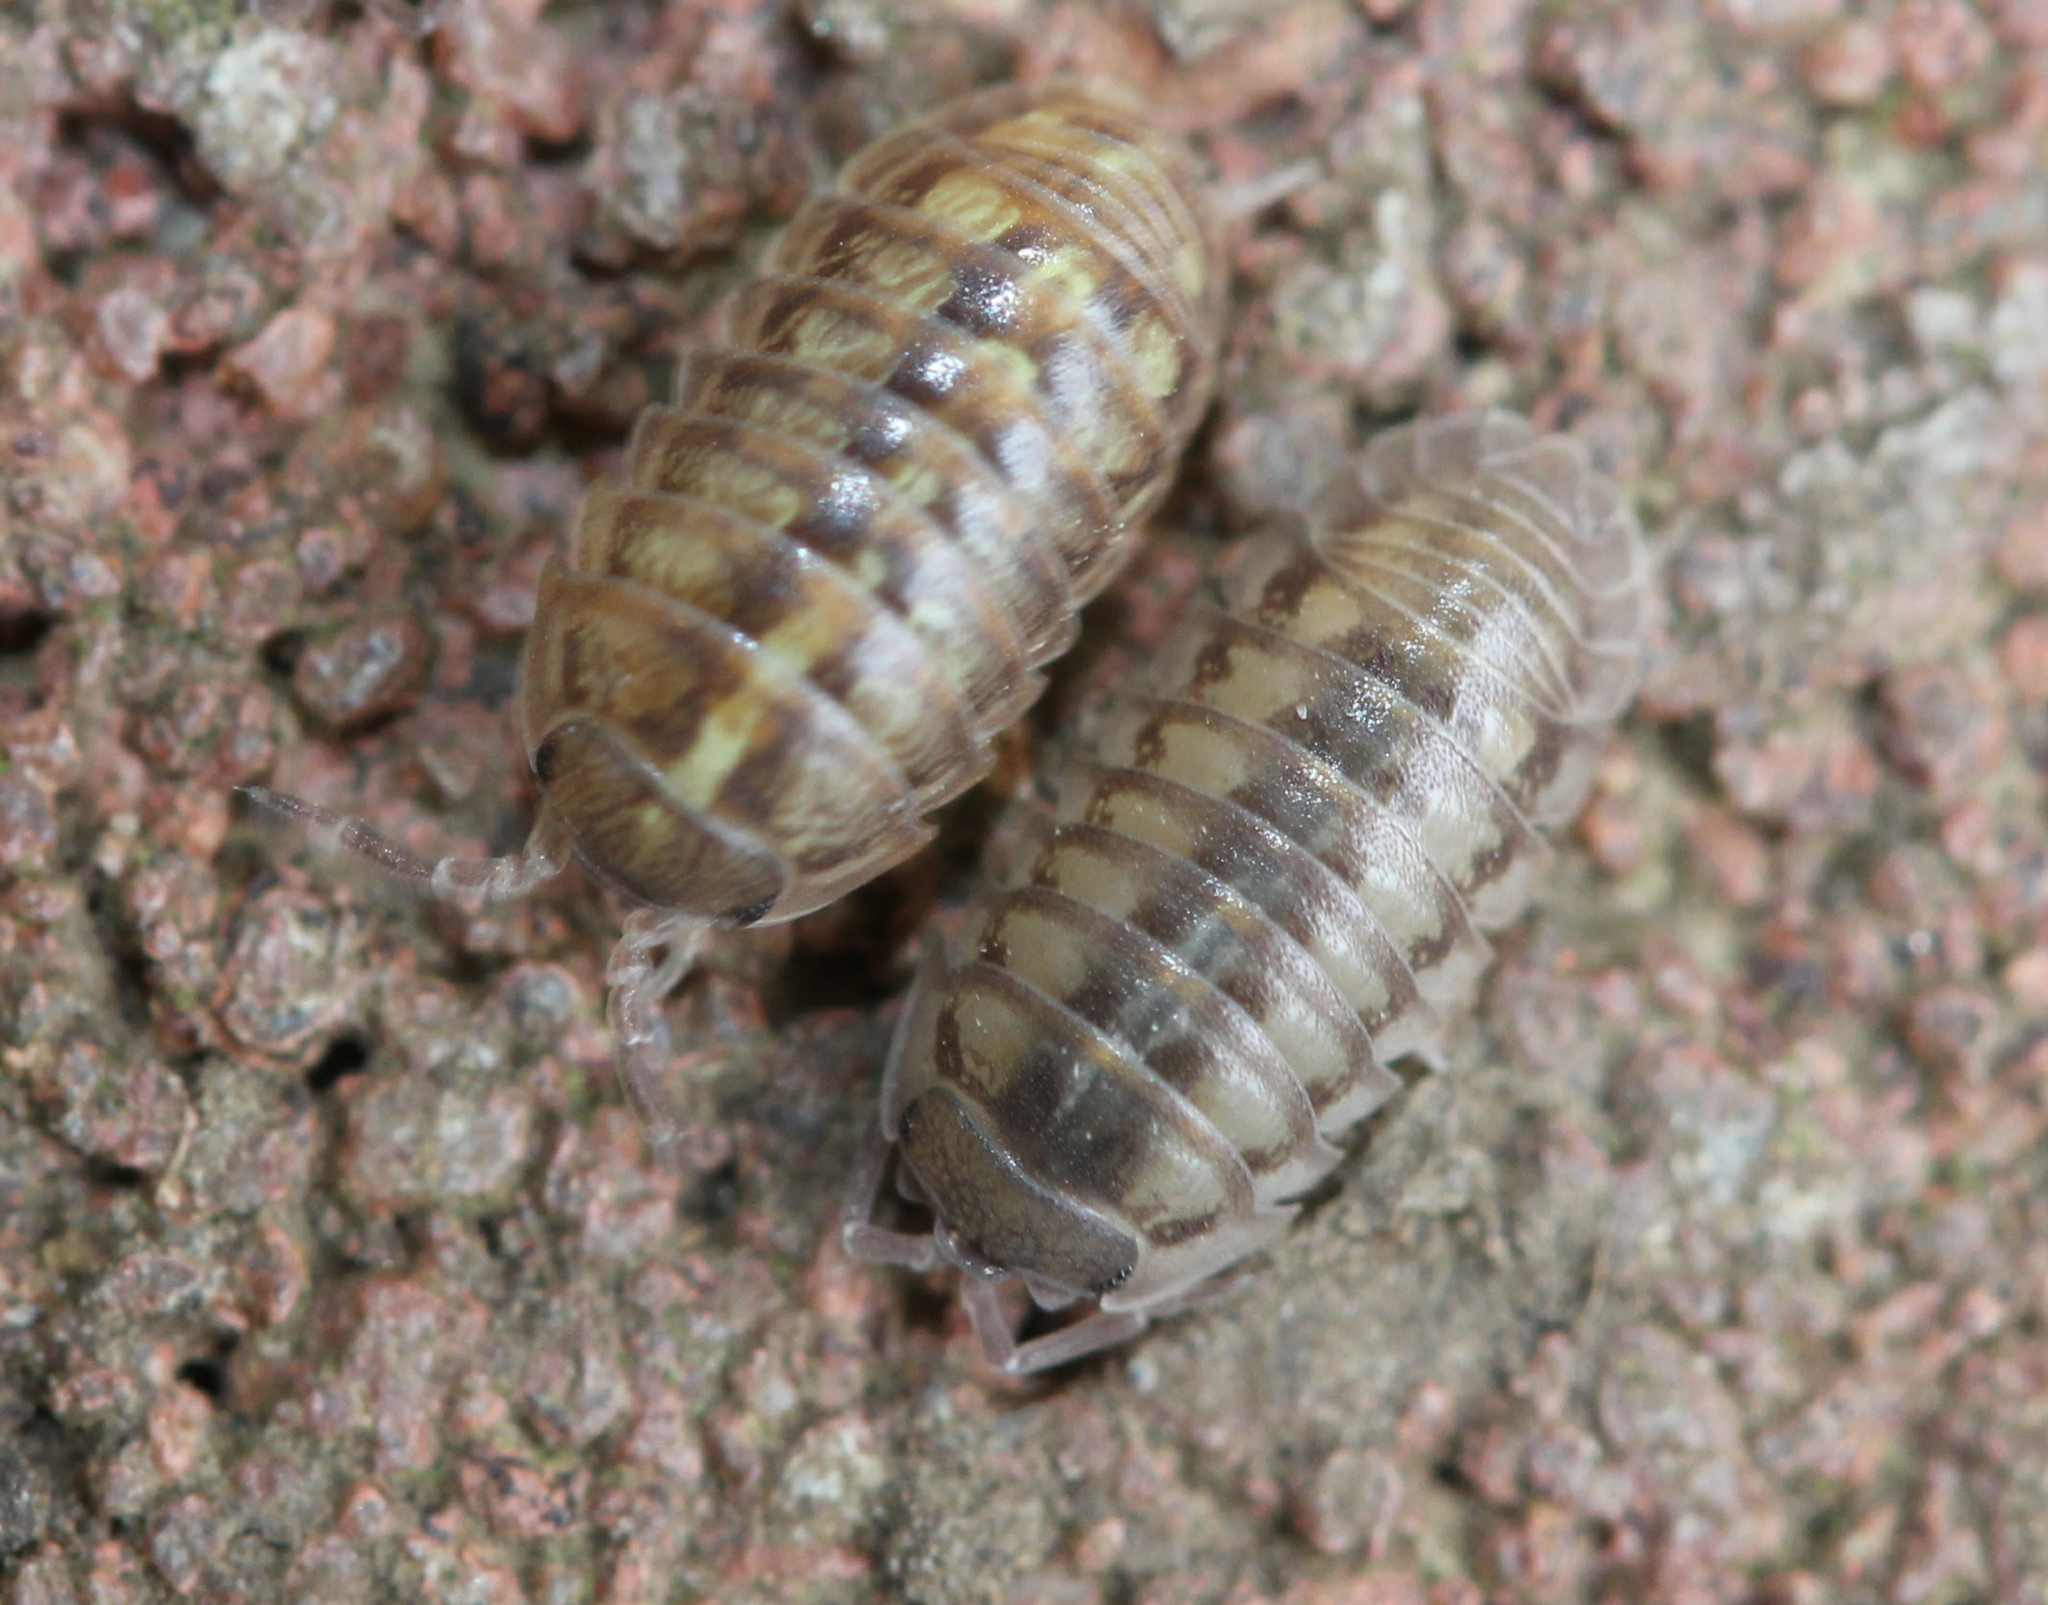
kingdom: Animalia
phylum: Arthropoda
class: Malacostraca
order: Isopoda
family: Armadillidiidae
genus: Armadillidium
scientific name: Armadillidium vulgare
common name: Common pill woodlouse
